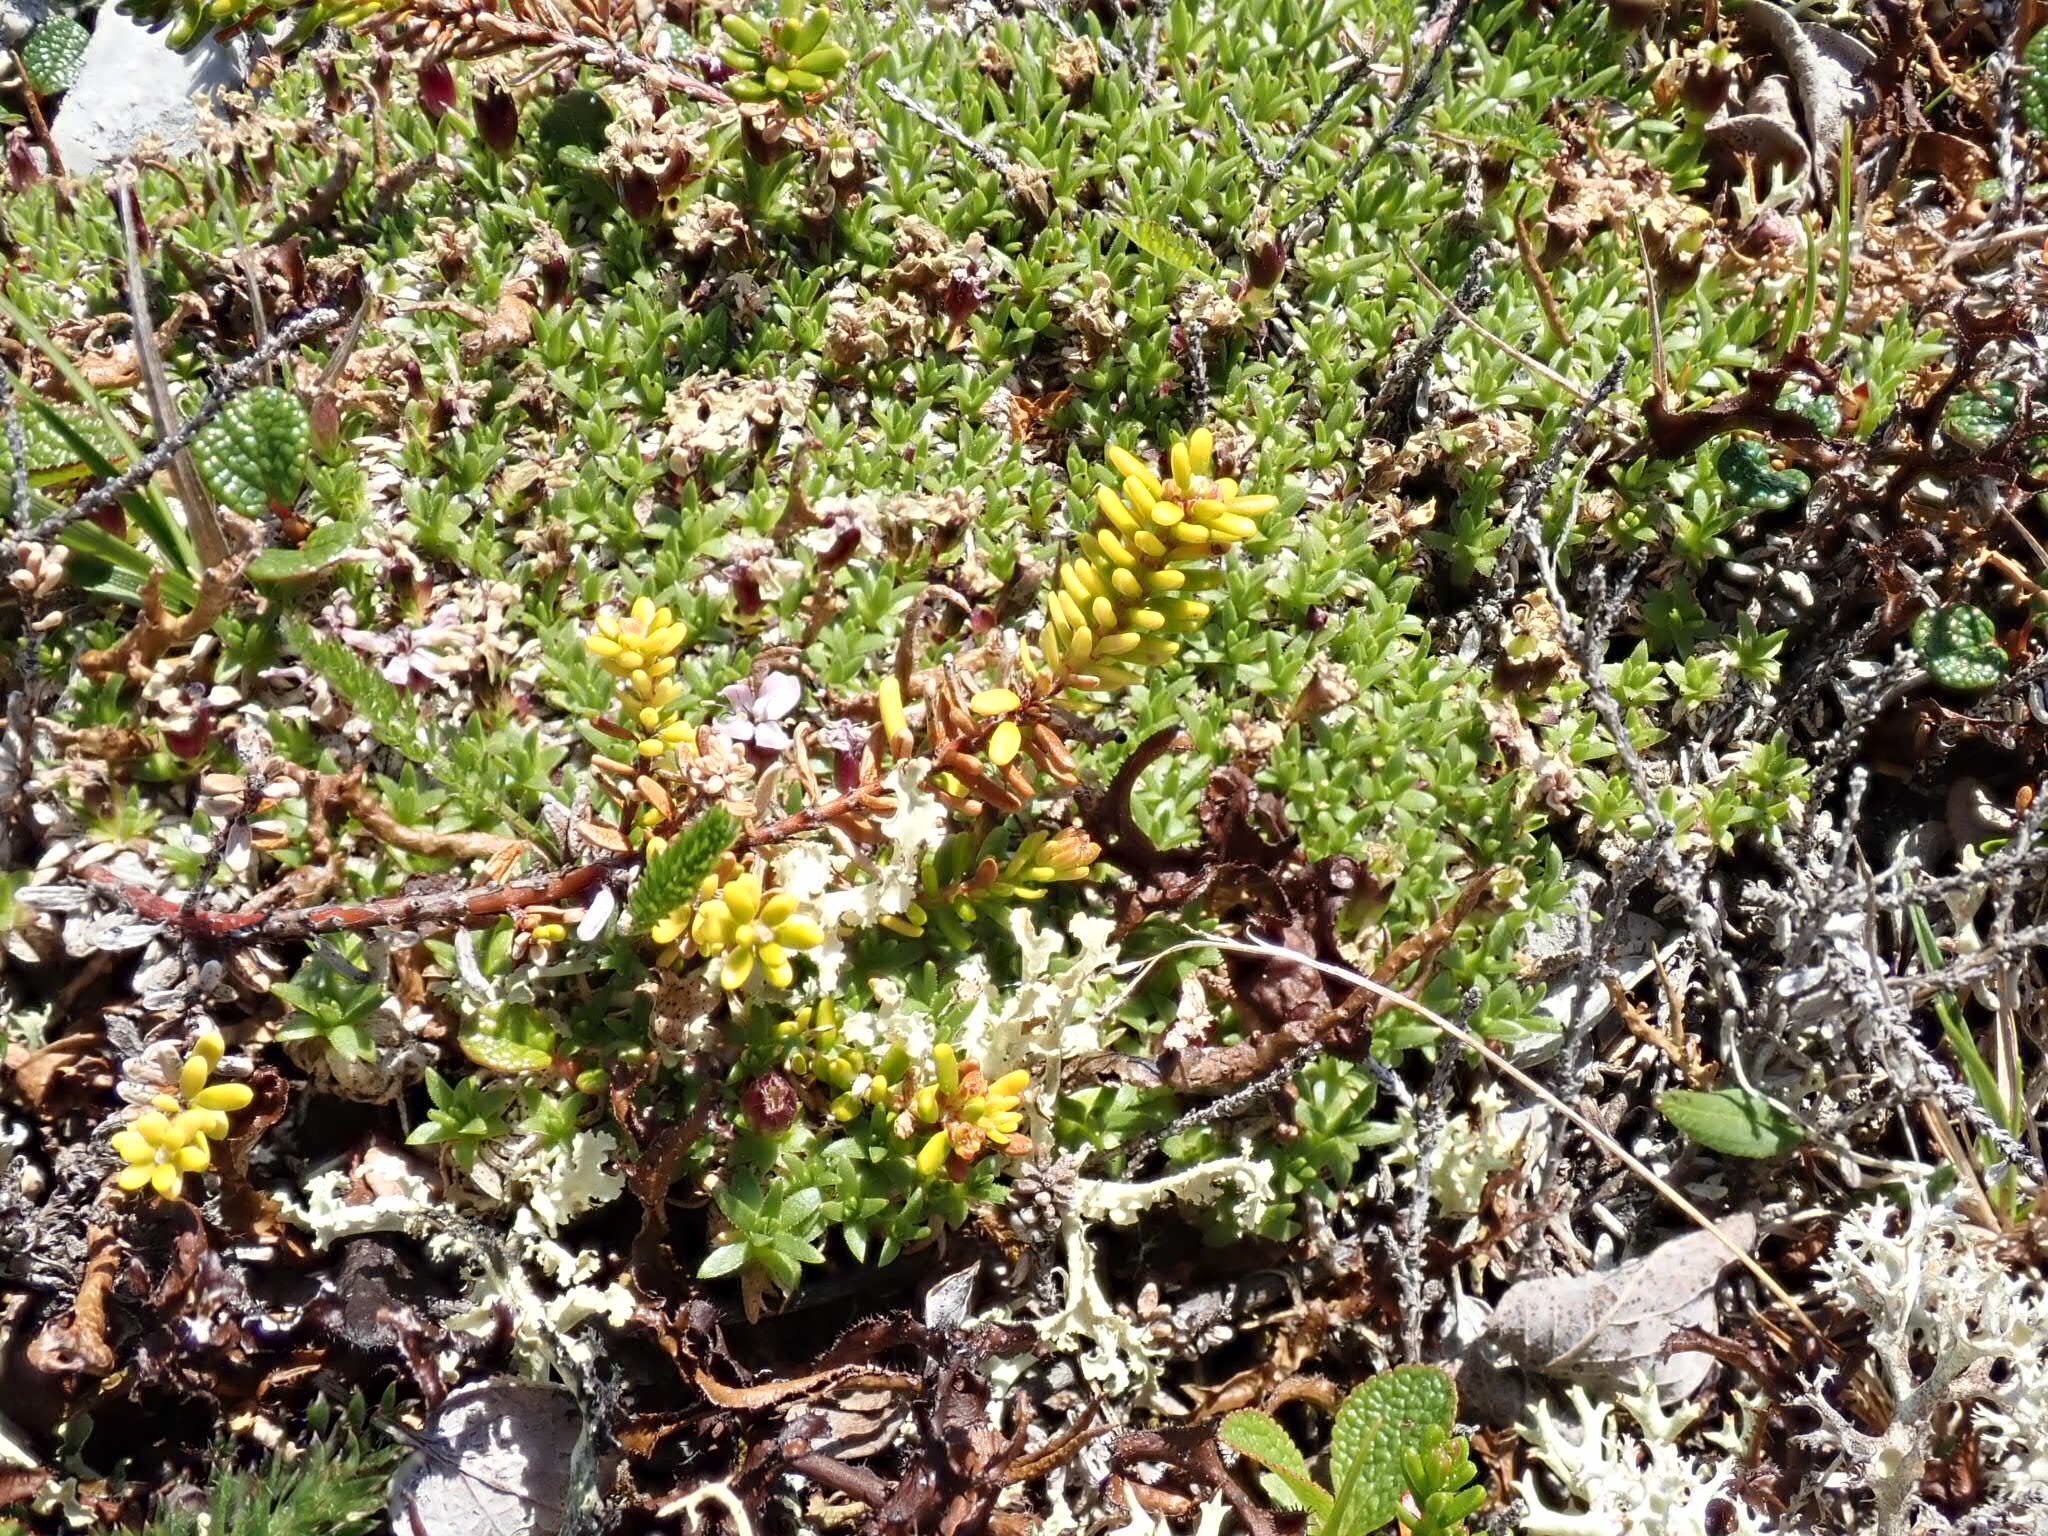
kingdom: Plantae
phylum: Tracheophyta
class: Magnoliopsida
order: Ericales
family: Ericaceae
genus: Empetrum
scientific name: Empetrum nigrum
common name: Black crowberry
